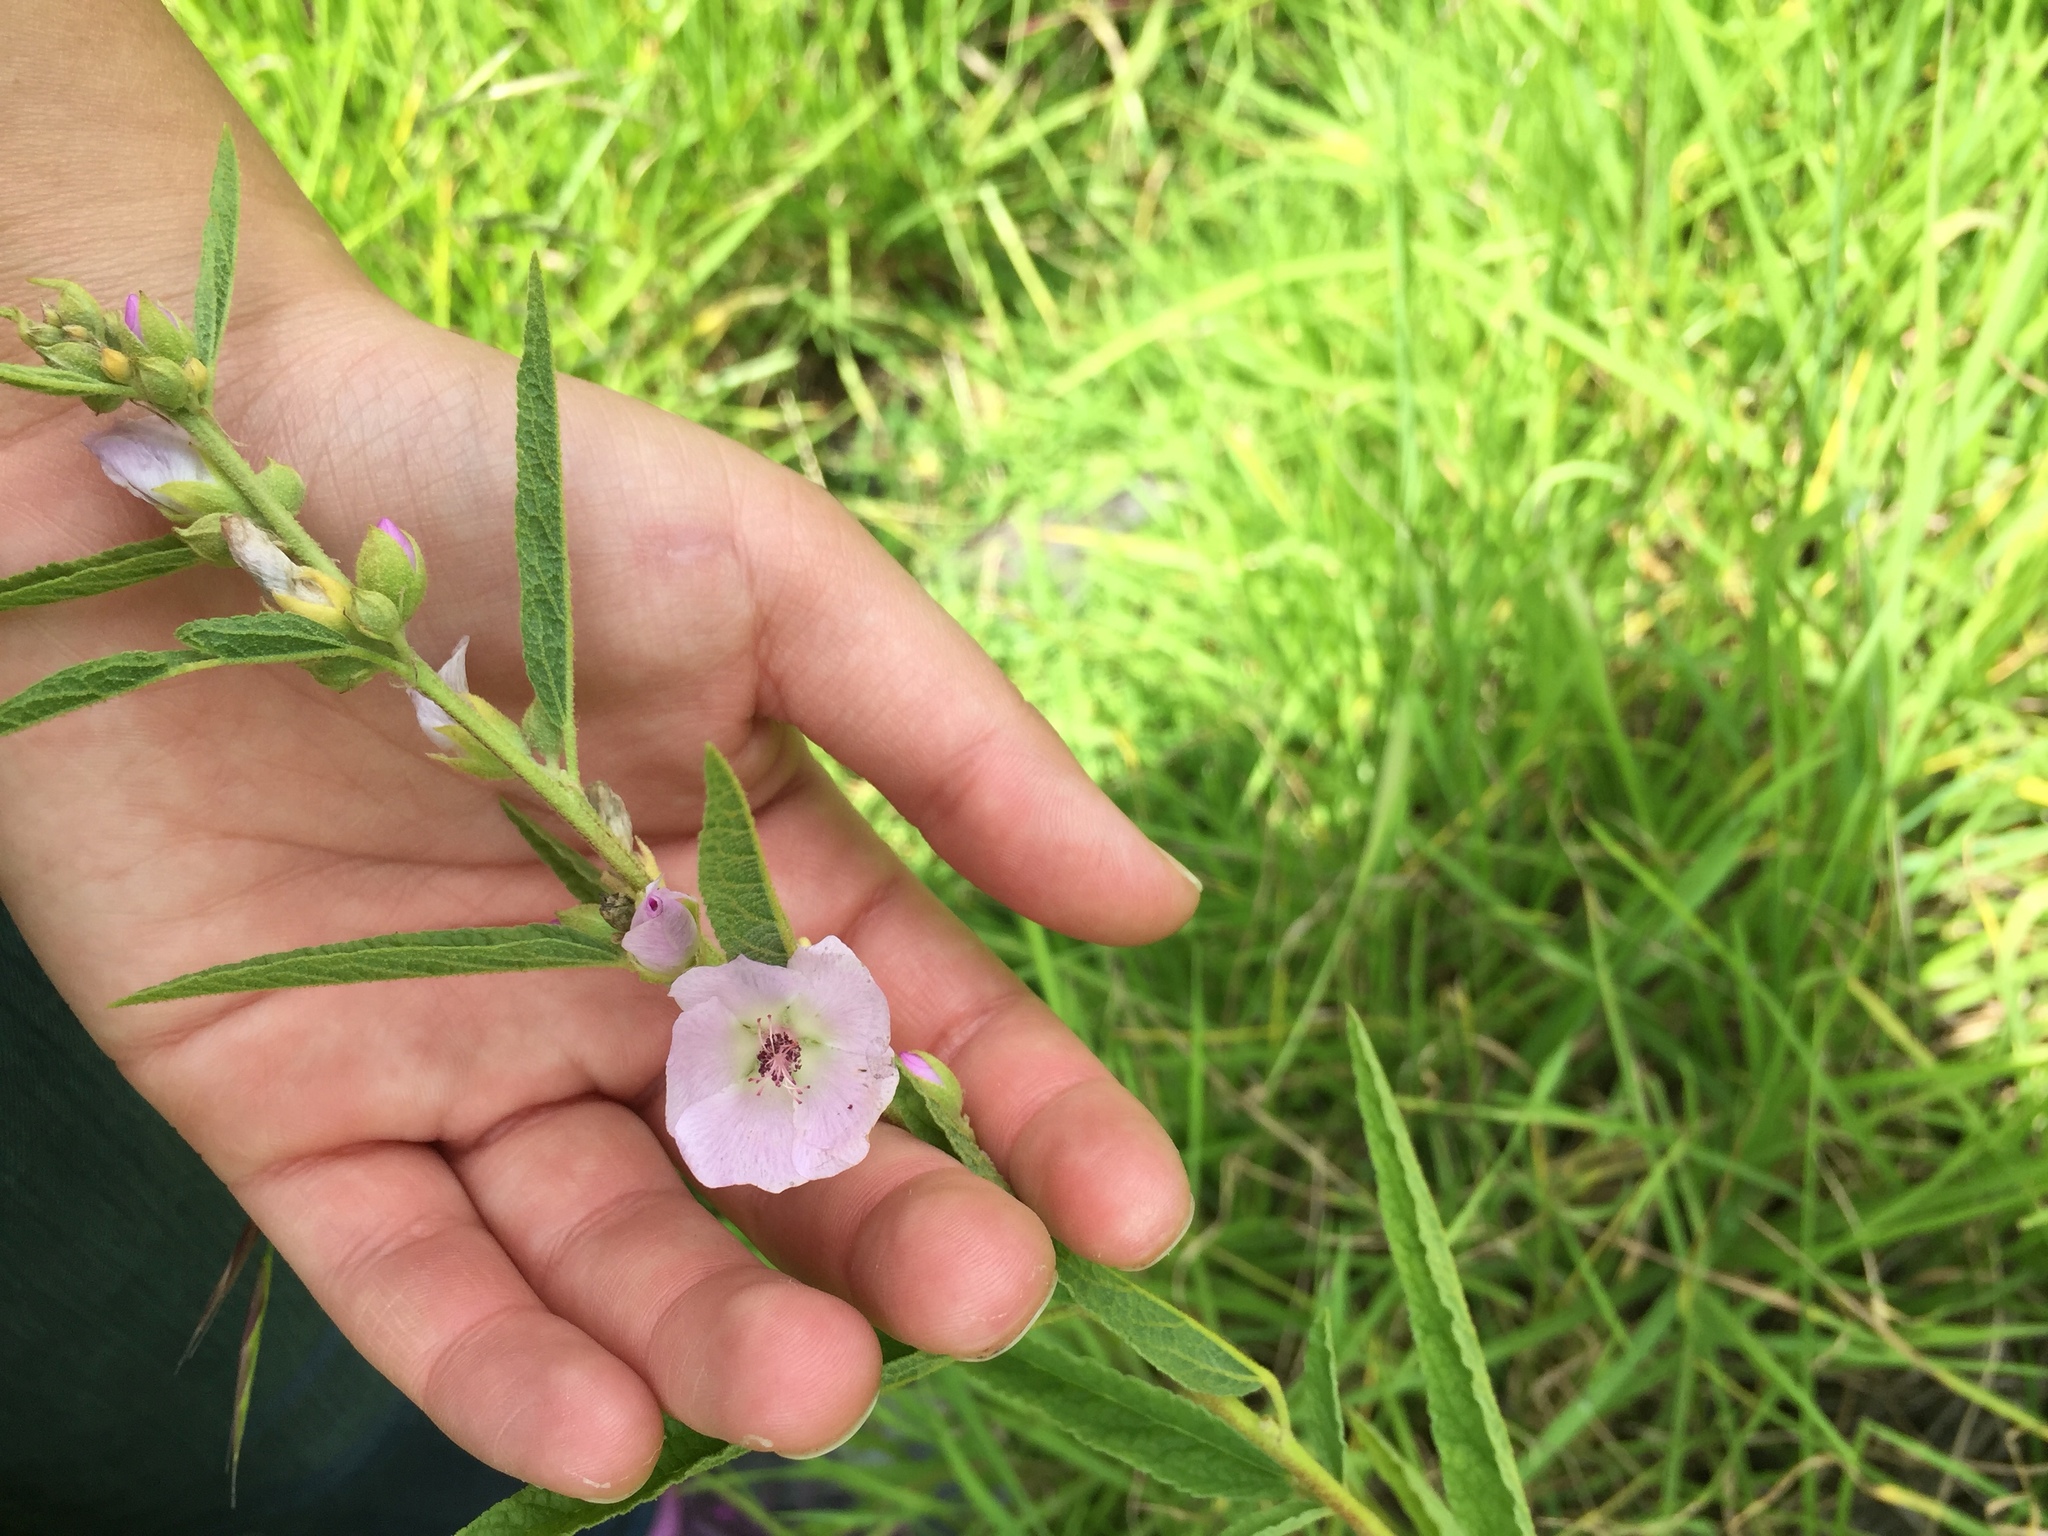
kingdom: Plantae
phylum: Tracheophyta
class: Magnoliopsida
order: Malvales
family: Malvaceae
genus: Sphaeralcea
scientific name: Sphaeralcea angustifolia
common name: Copper globe-mallow
